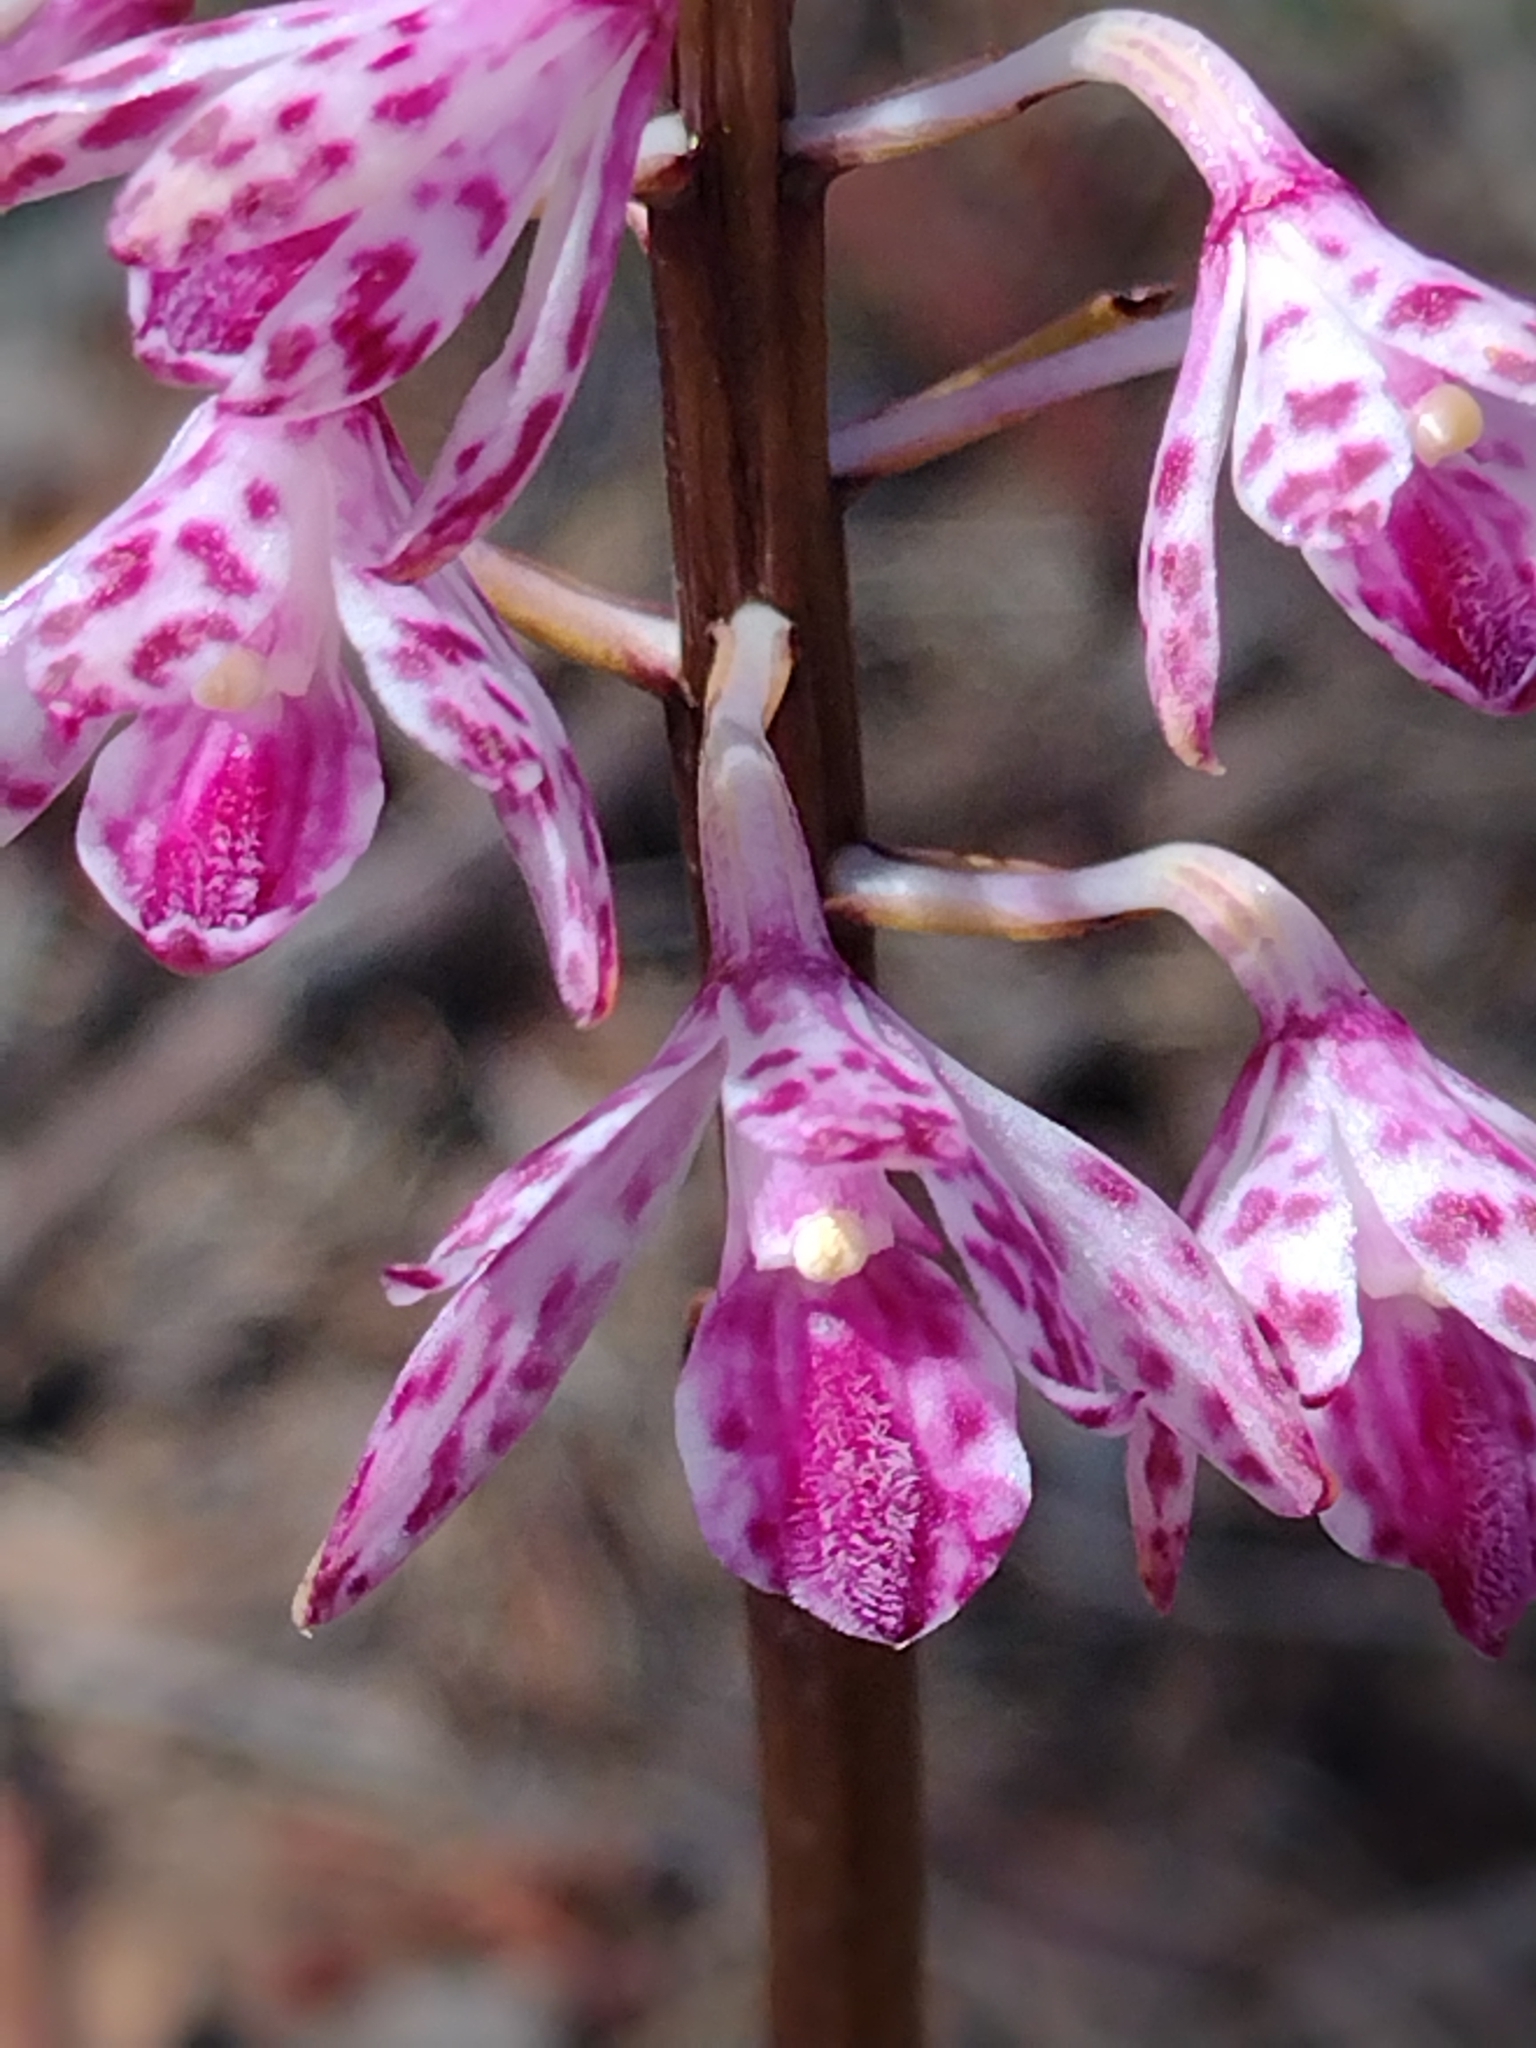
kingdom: Plantae
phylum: Tracheophyta
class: Liliopsida
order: Asparagales
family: Orchidaceae
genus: Dipodium
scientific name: Dipodium squamatum
